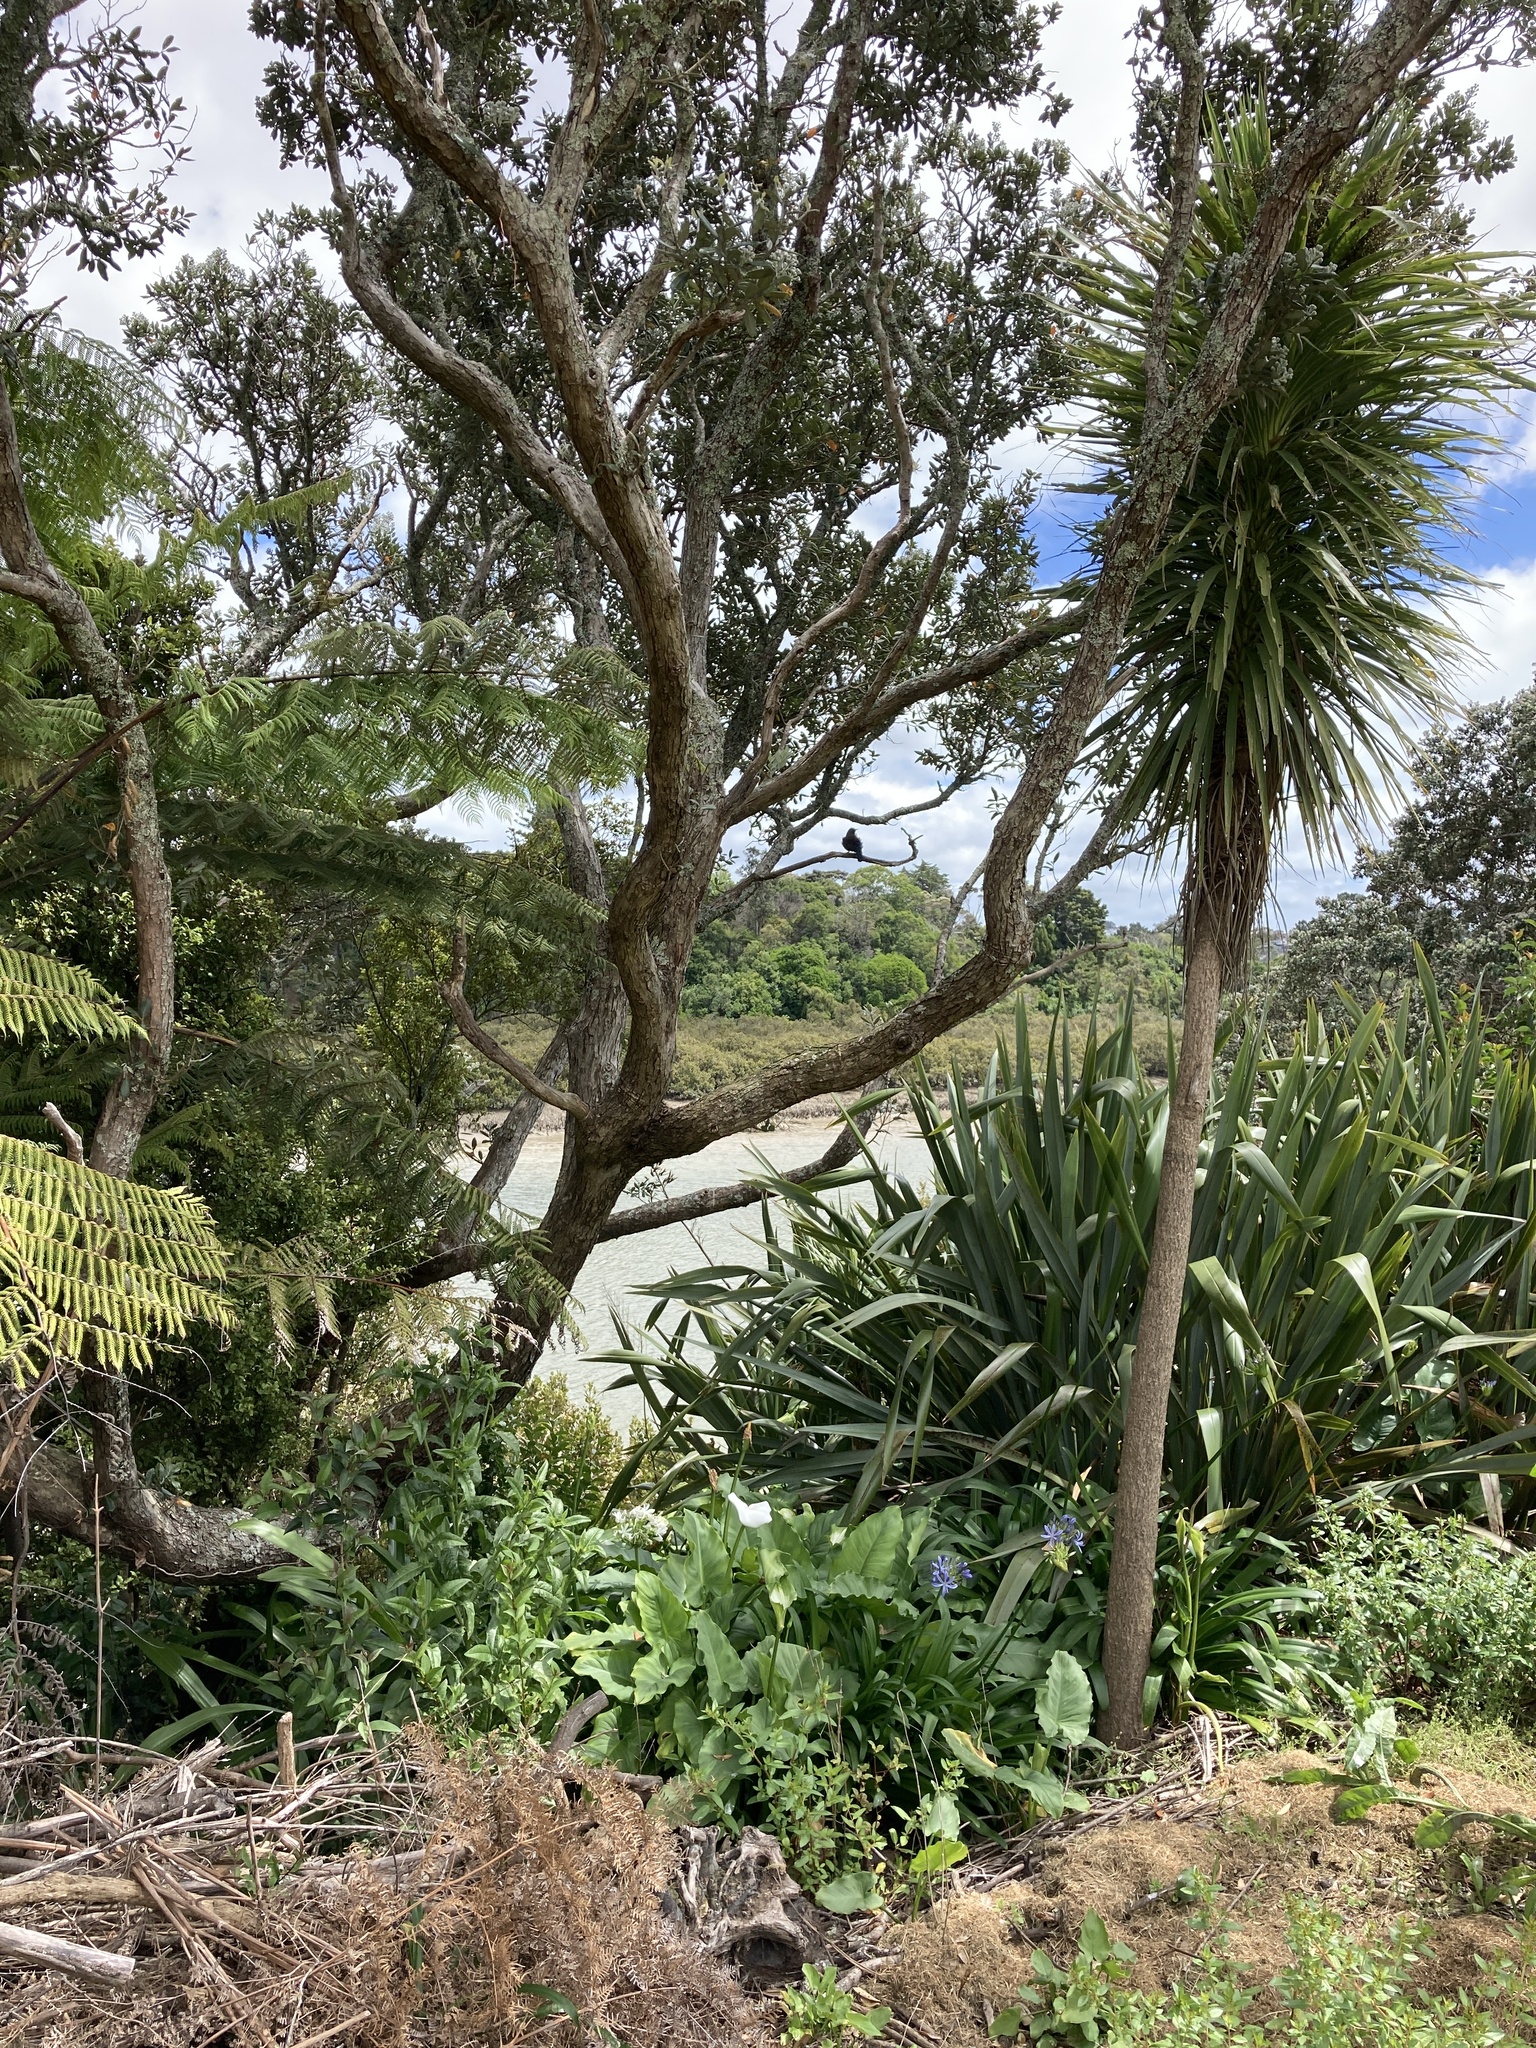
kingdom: Plantae
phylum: Tracheophyta
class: Magnoliopsida
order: Myrtales
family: Myrtaceae
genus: Metrosideros
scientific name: Metrosideros excelsa
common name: New zealand christmastree
